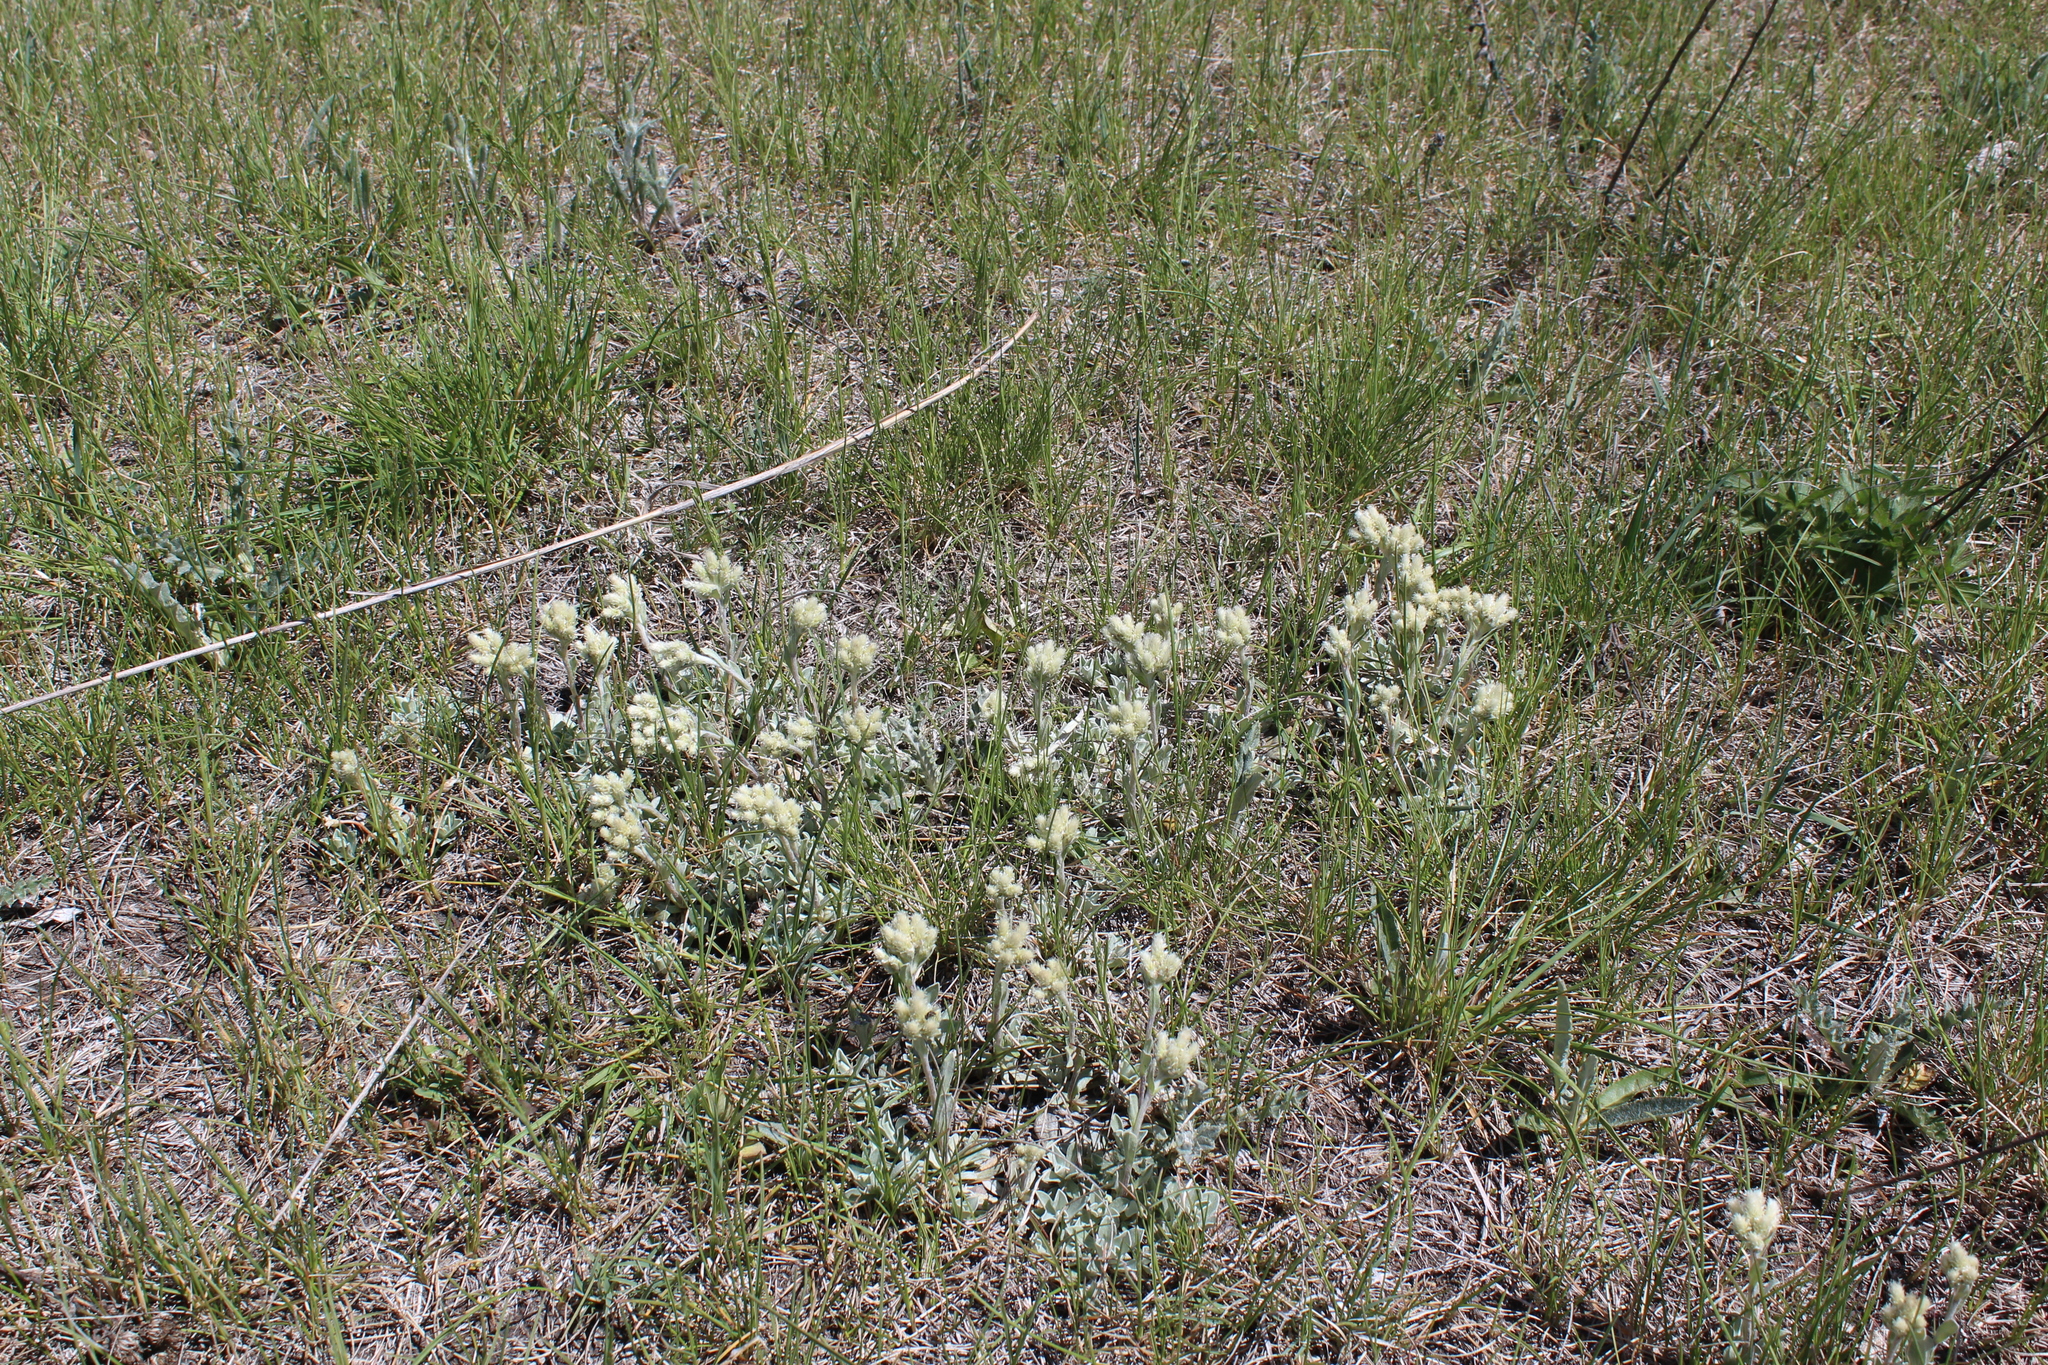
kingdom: Plantae
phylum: Tracheophyta
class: Magnoliopsida
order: Asterales
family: Asteraceae
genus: Antennaria
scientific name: Antennaria parvifolia
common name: Nuttall's pussytoes
